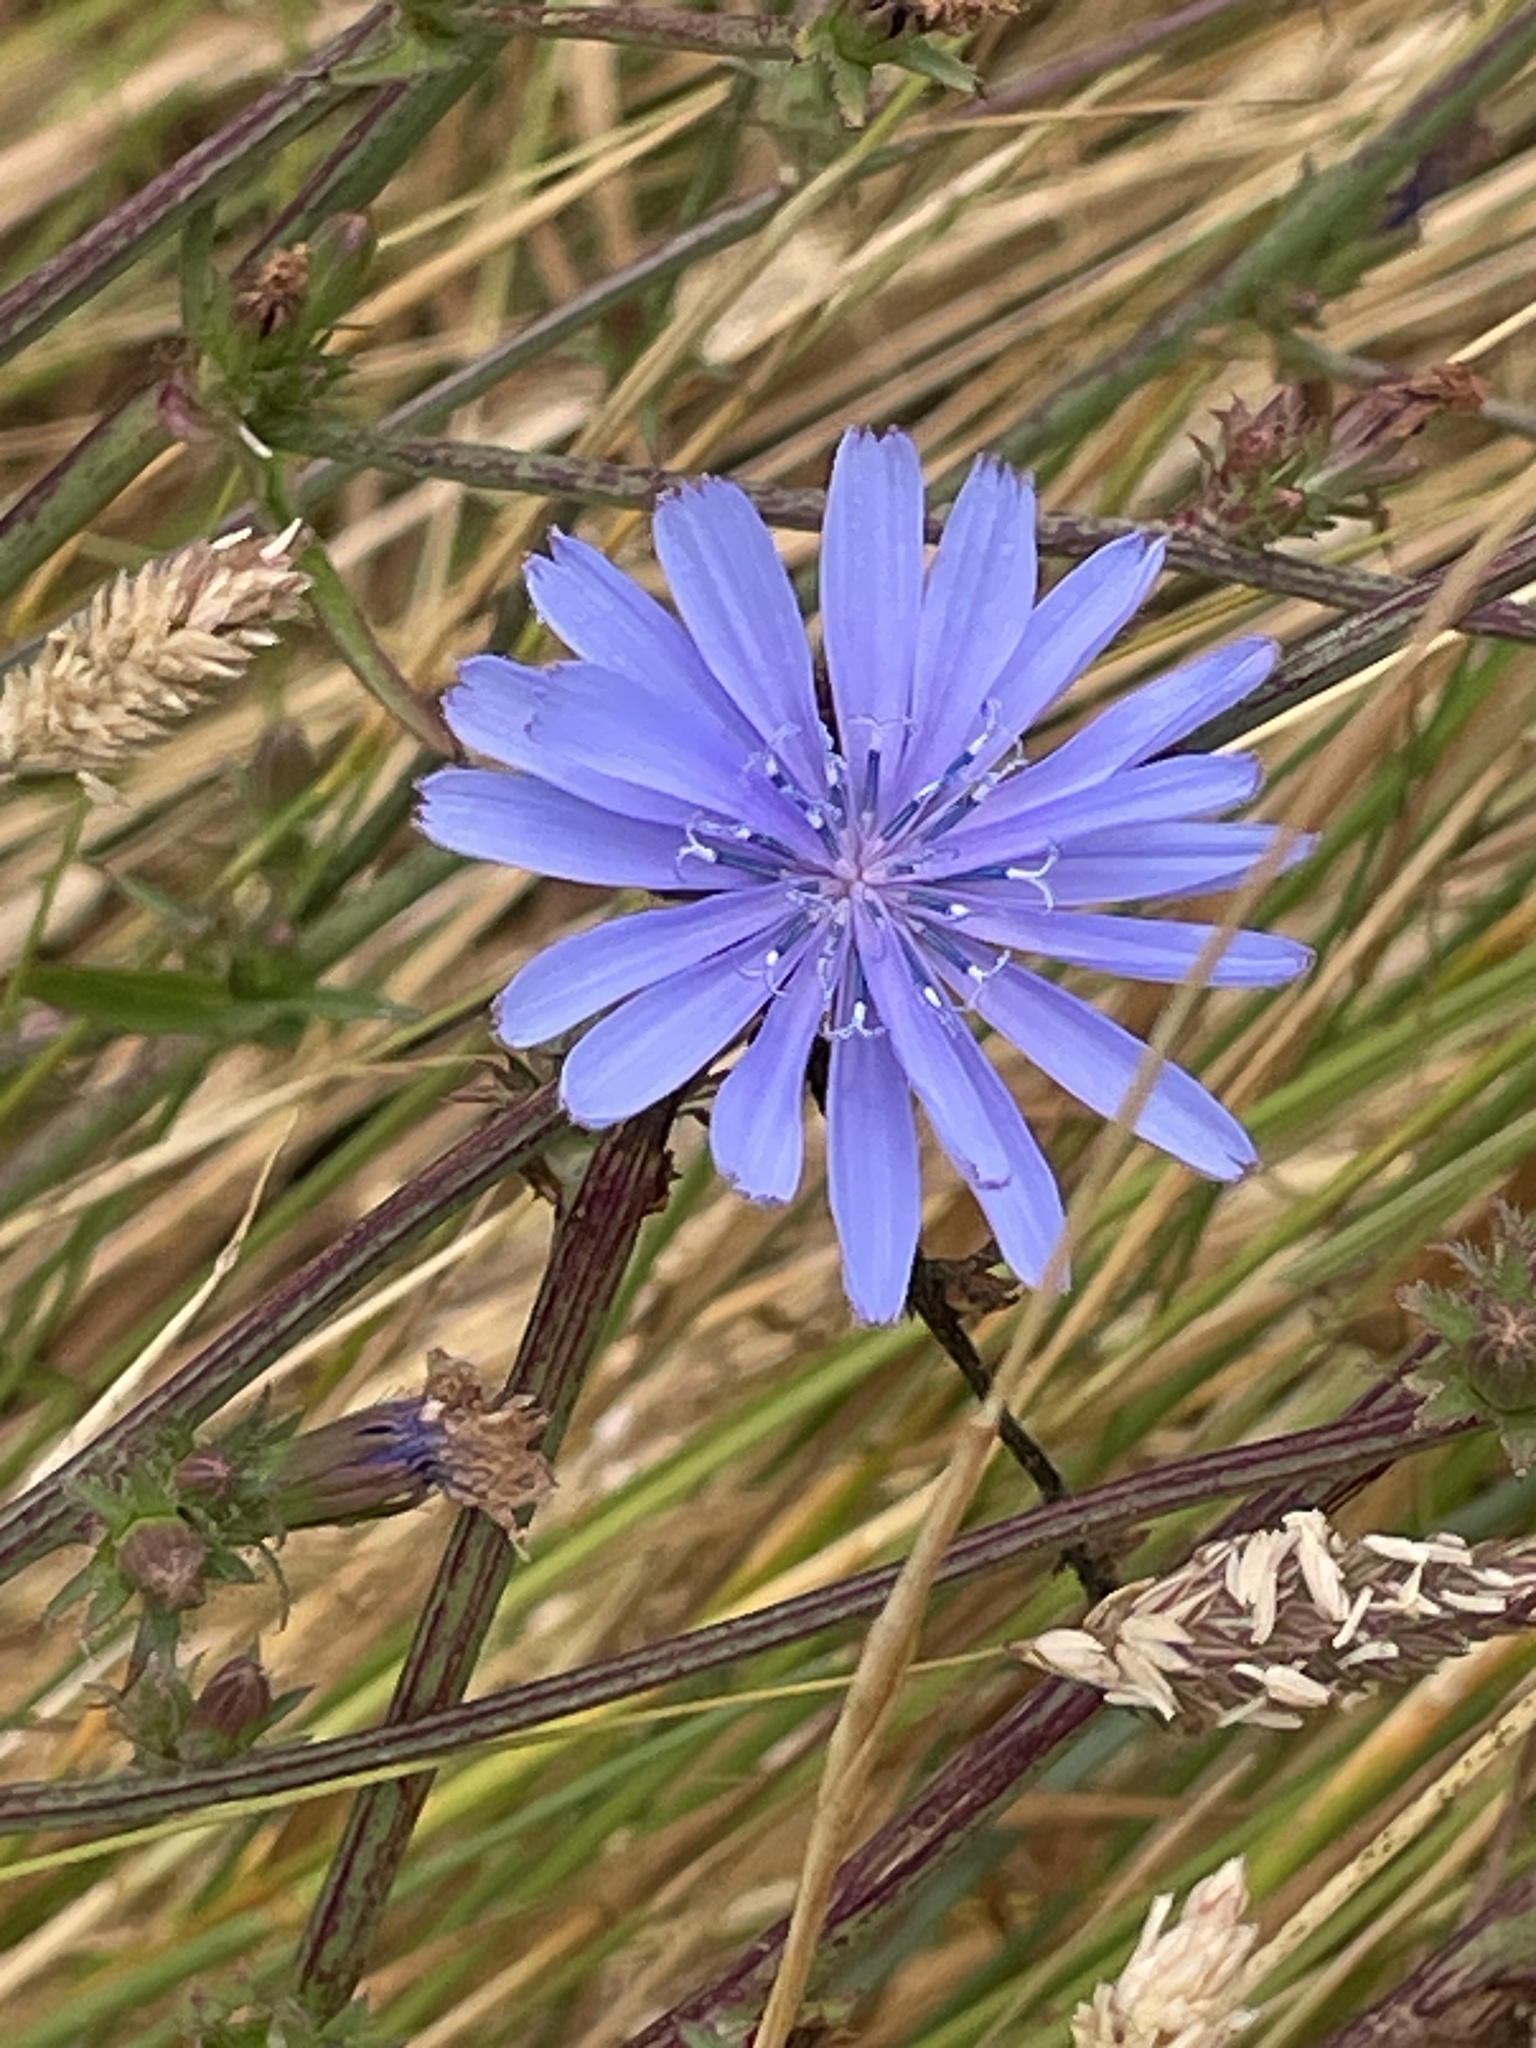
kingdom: Plantae
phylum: Tracheophyta
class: Magnoliopsida
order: Asterales
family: Asteraceae
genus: Cichorium
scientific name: Cichorium intybus
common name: Chicory
